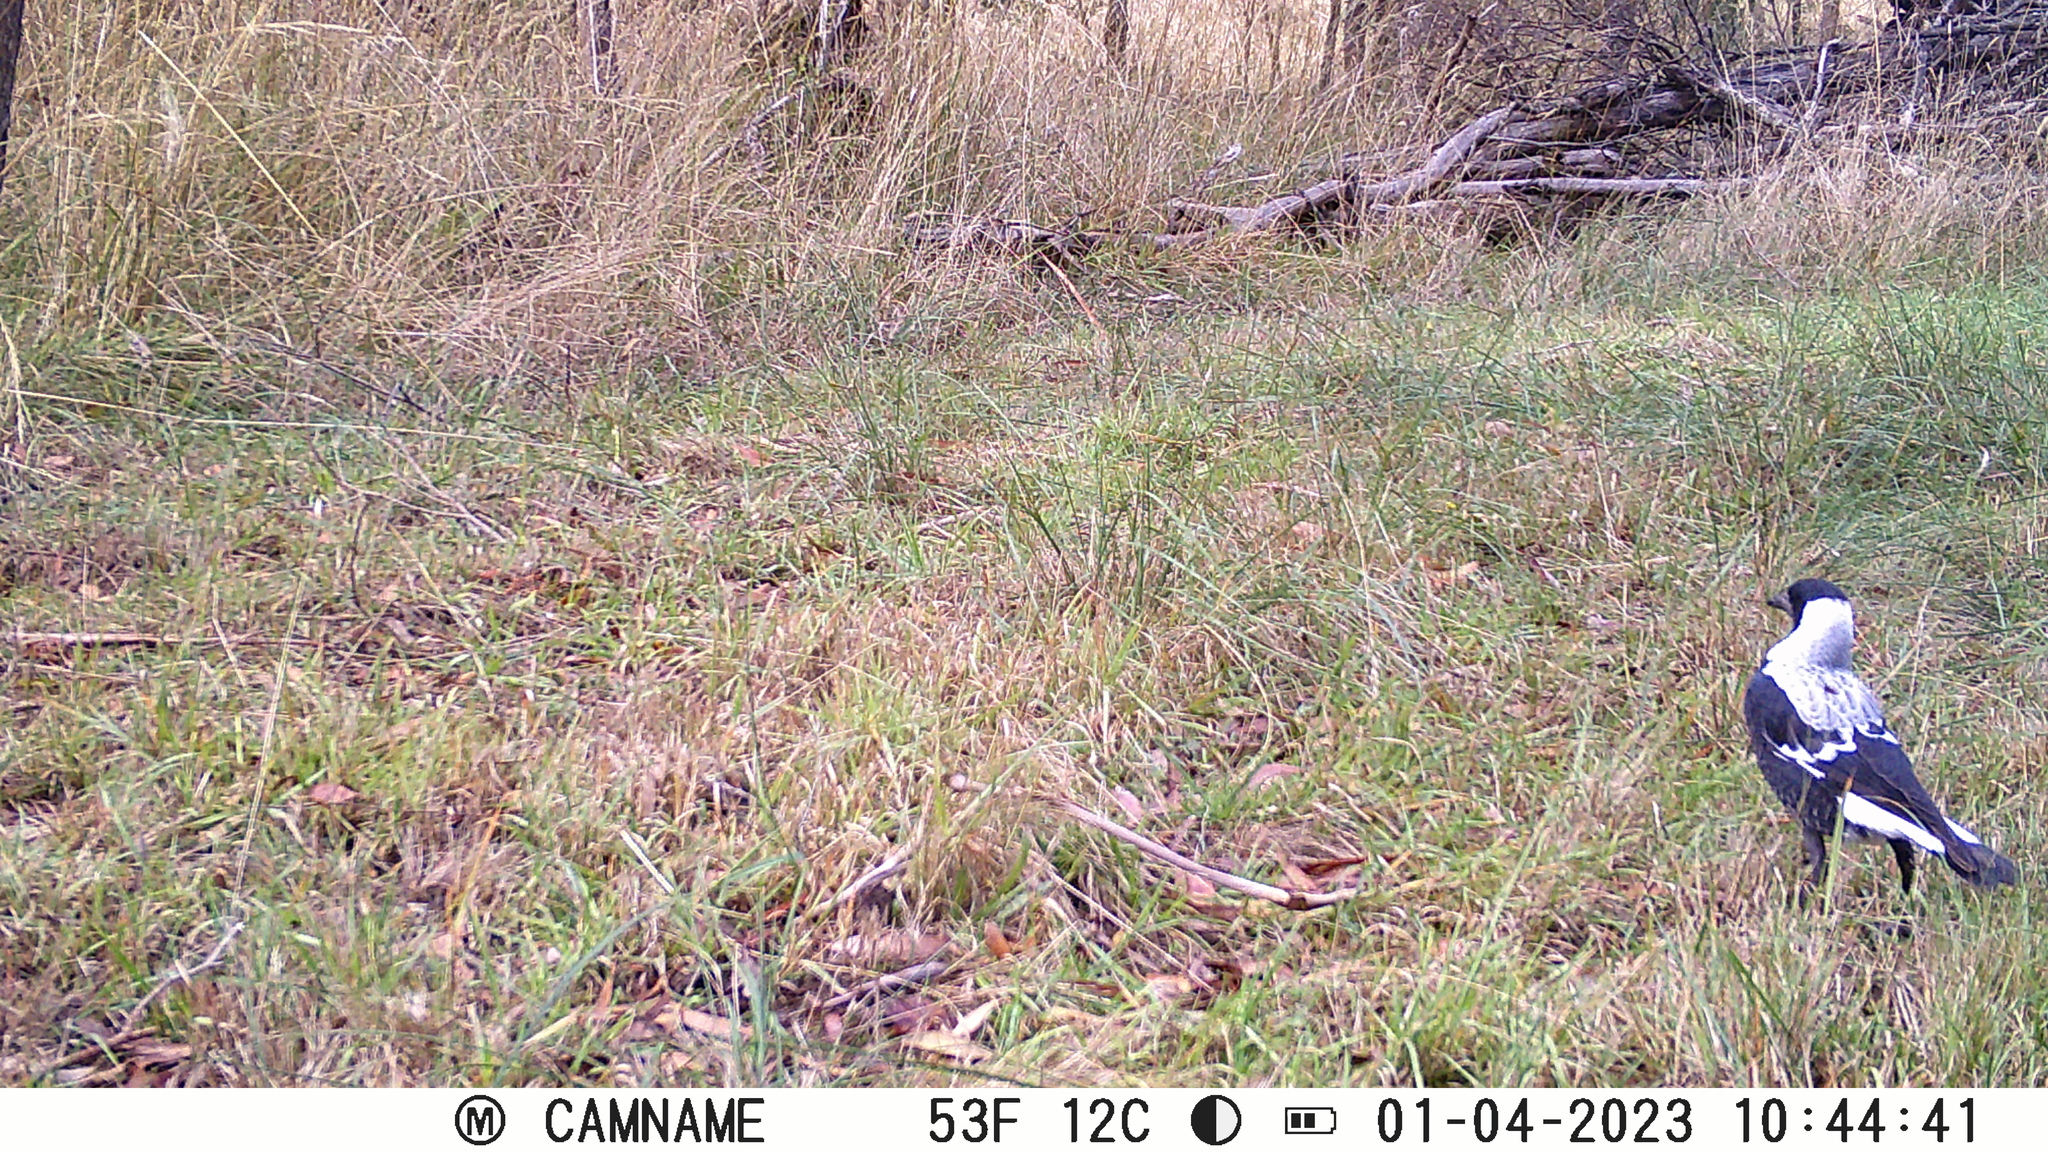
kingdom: Animalia
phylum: Chordata
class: Aves
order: Passeriformes
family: Cracticidae
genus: Gymnorhina
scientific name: Gymnorhina tibicen
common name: Australian magpie
